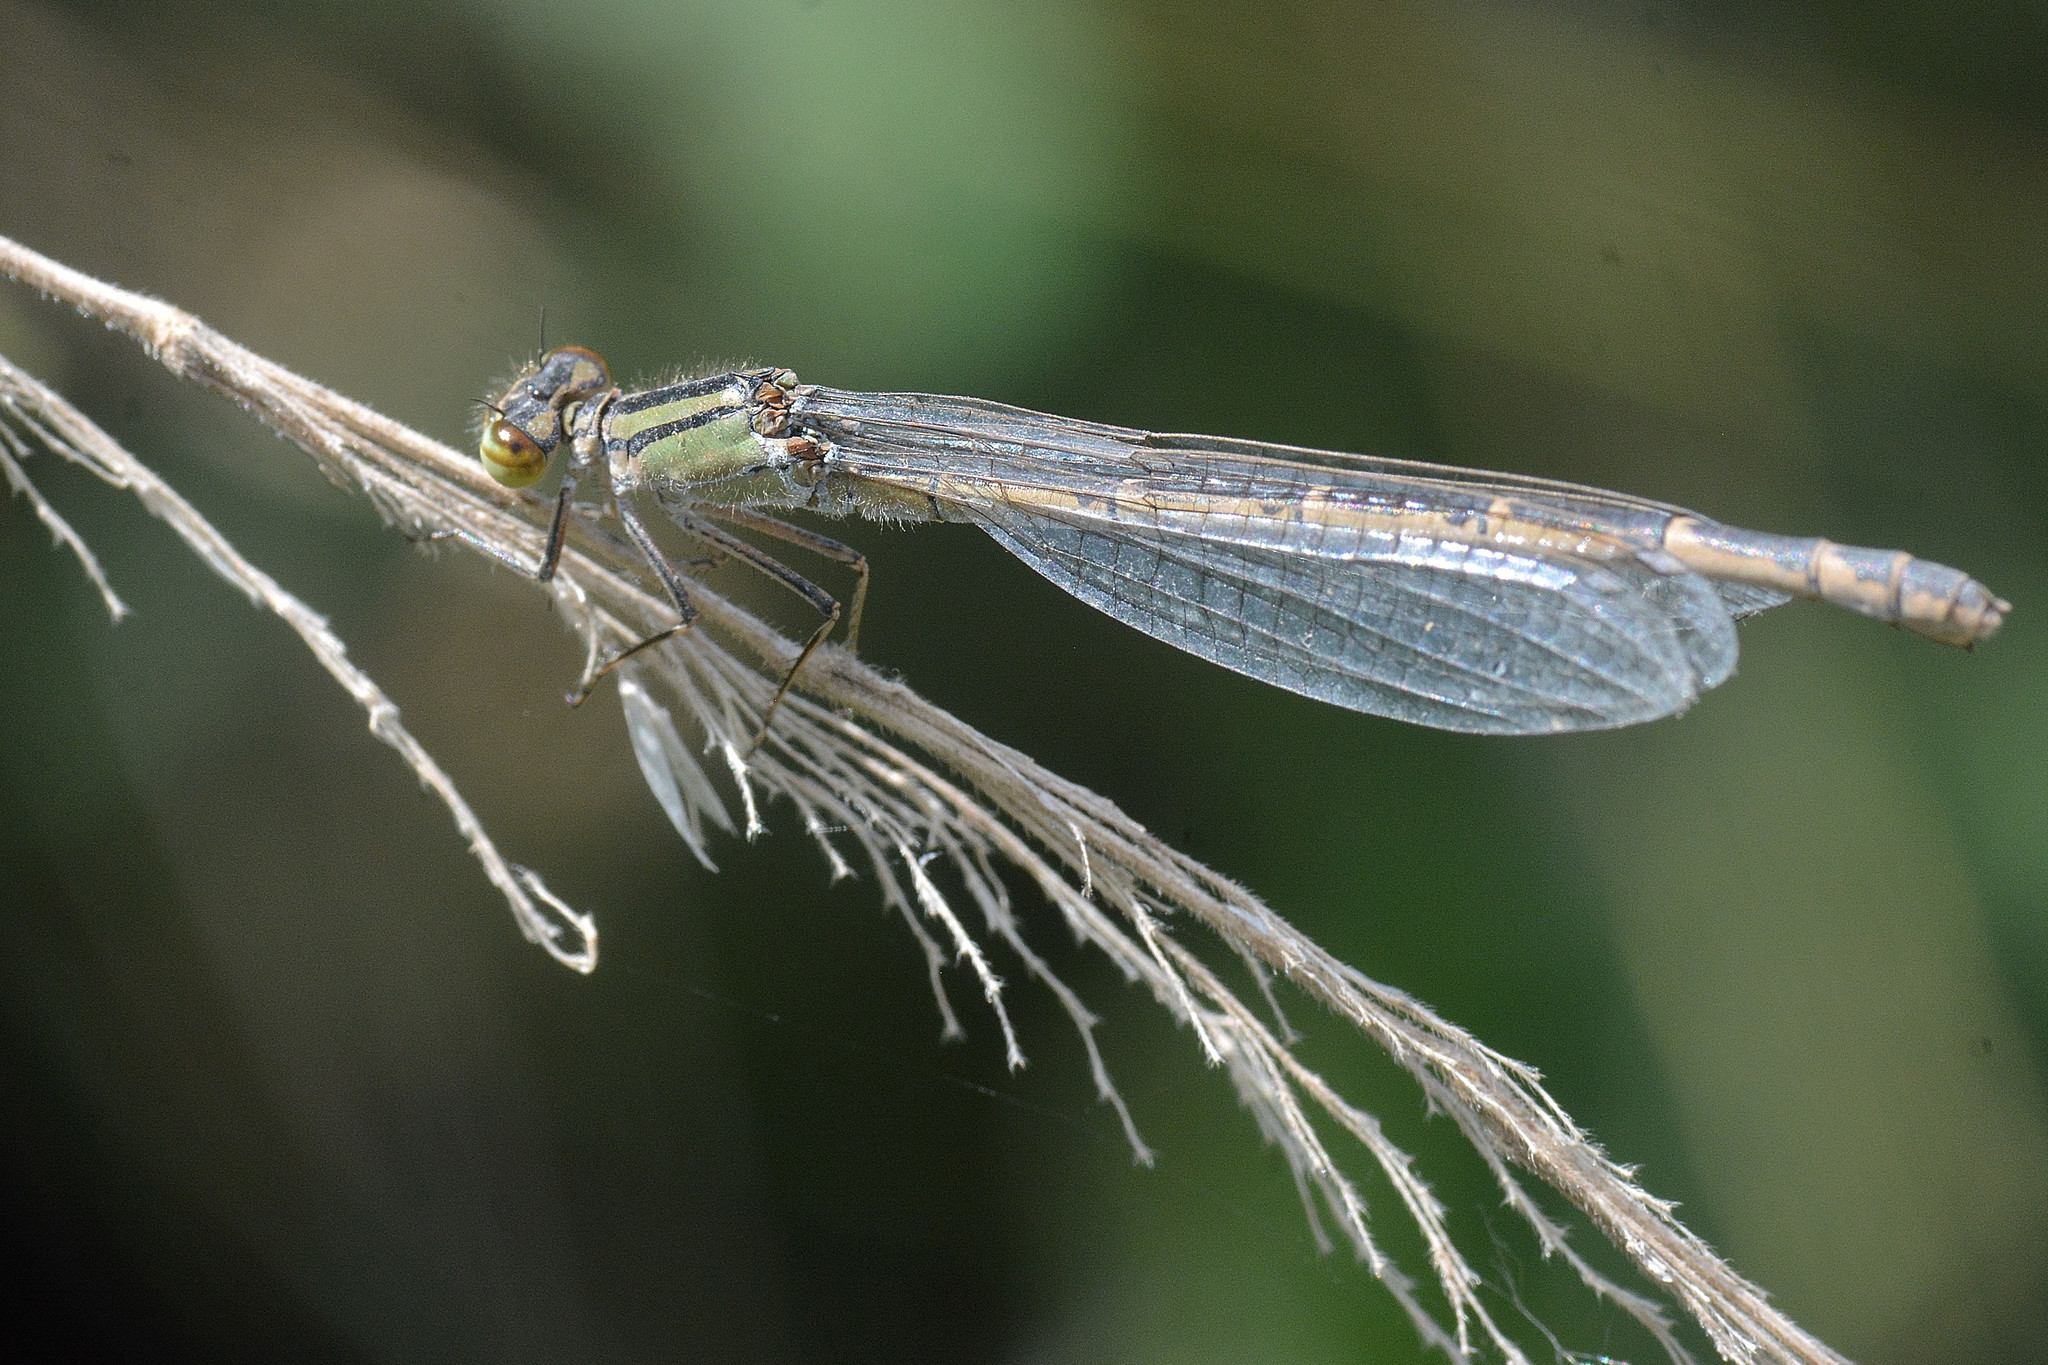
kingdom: Animalia
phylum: Arthropoda
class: Insecta
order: Odonata
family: Coenagrionidae
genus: Enallagma
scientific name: Enallagma cyathigerum
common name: Common blue damselfly
